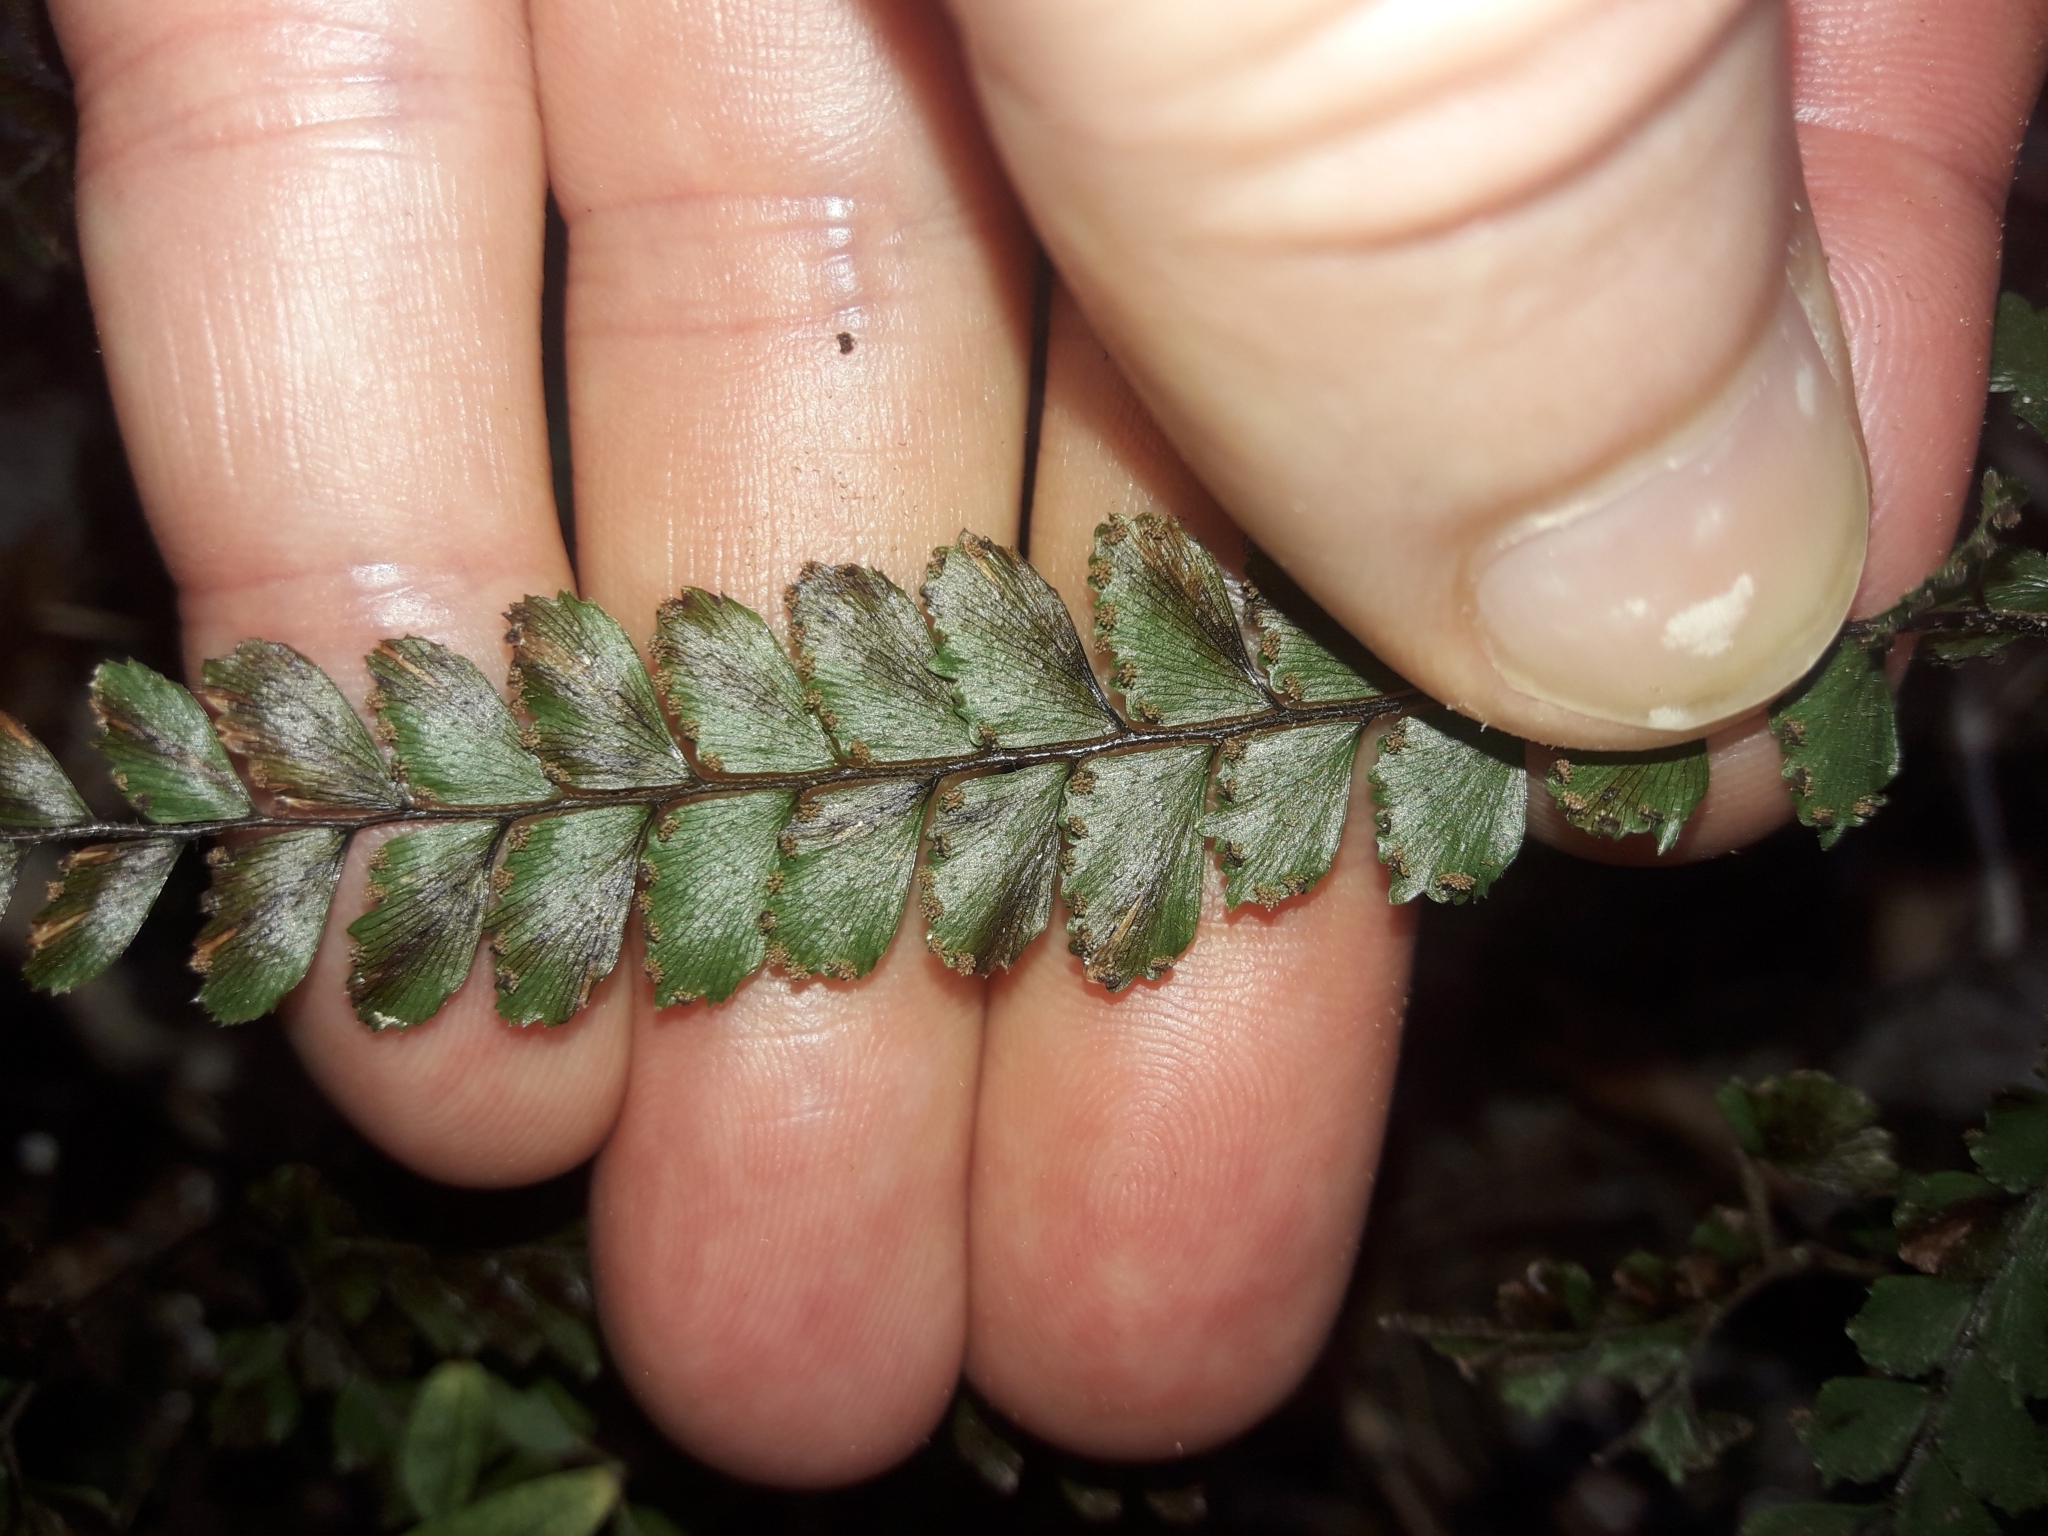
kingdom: Plantae
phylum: Tracheophyta
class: Polypodiopsida
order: Polypodiales
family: Pteridaceae
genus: Adiantum
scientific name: Adiantum hispidulum
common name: Rough maidenhair
